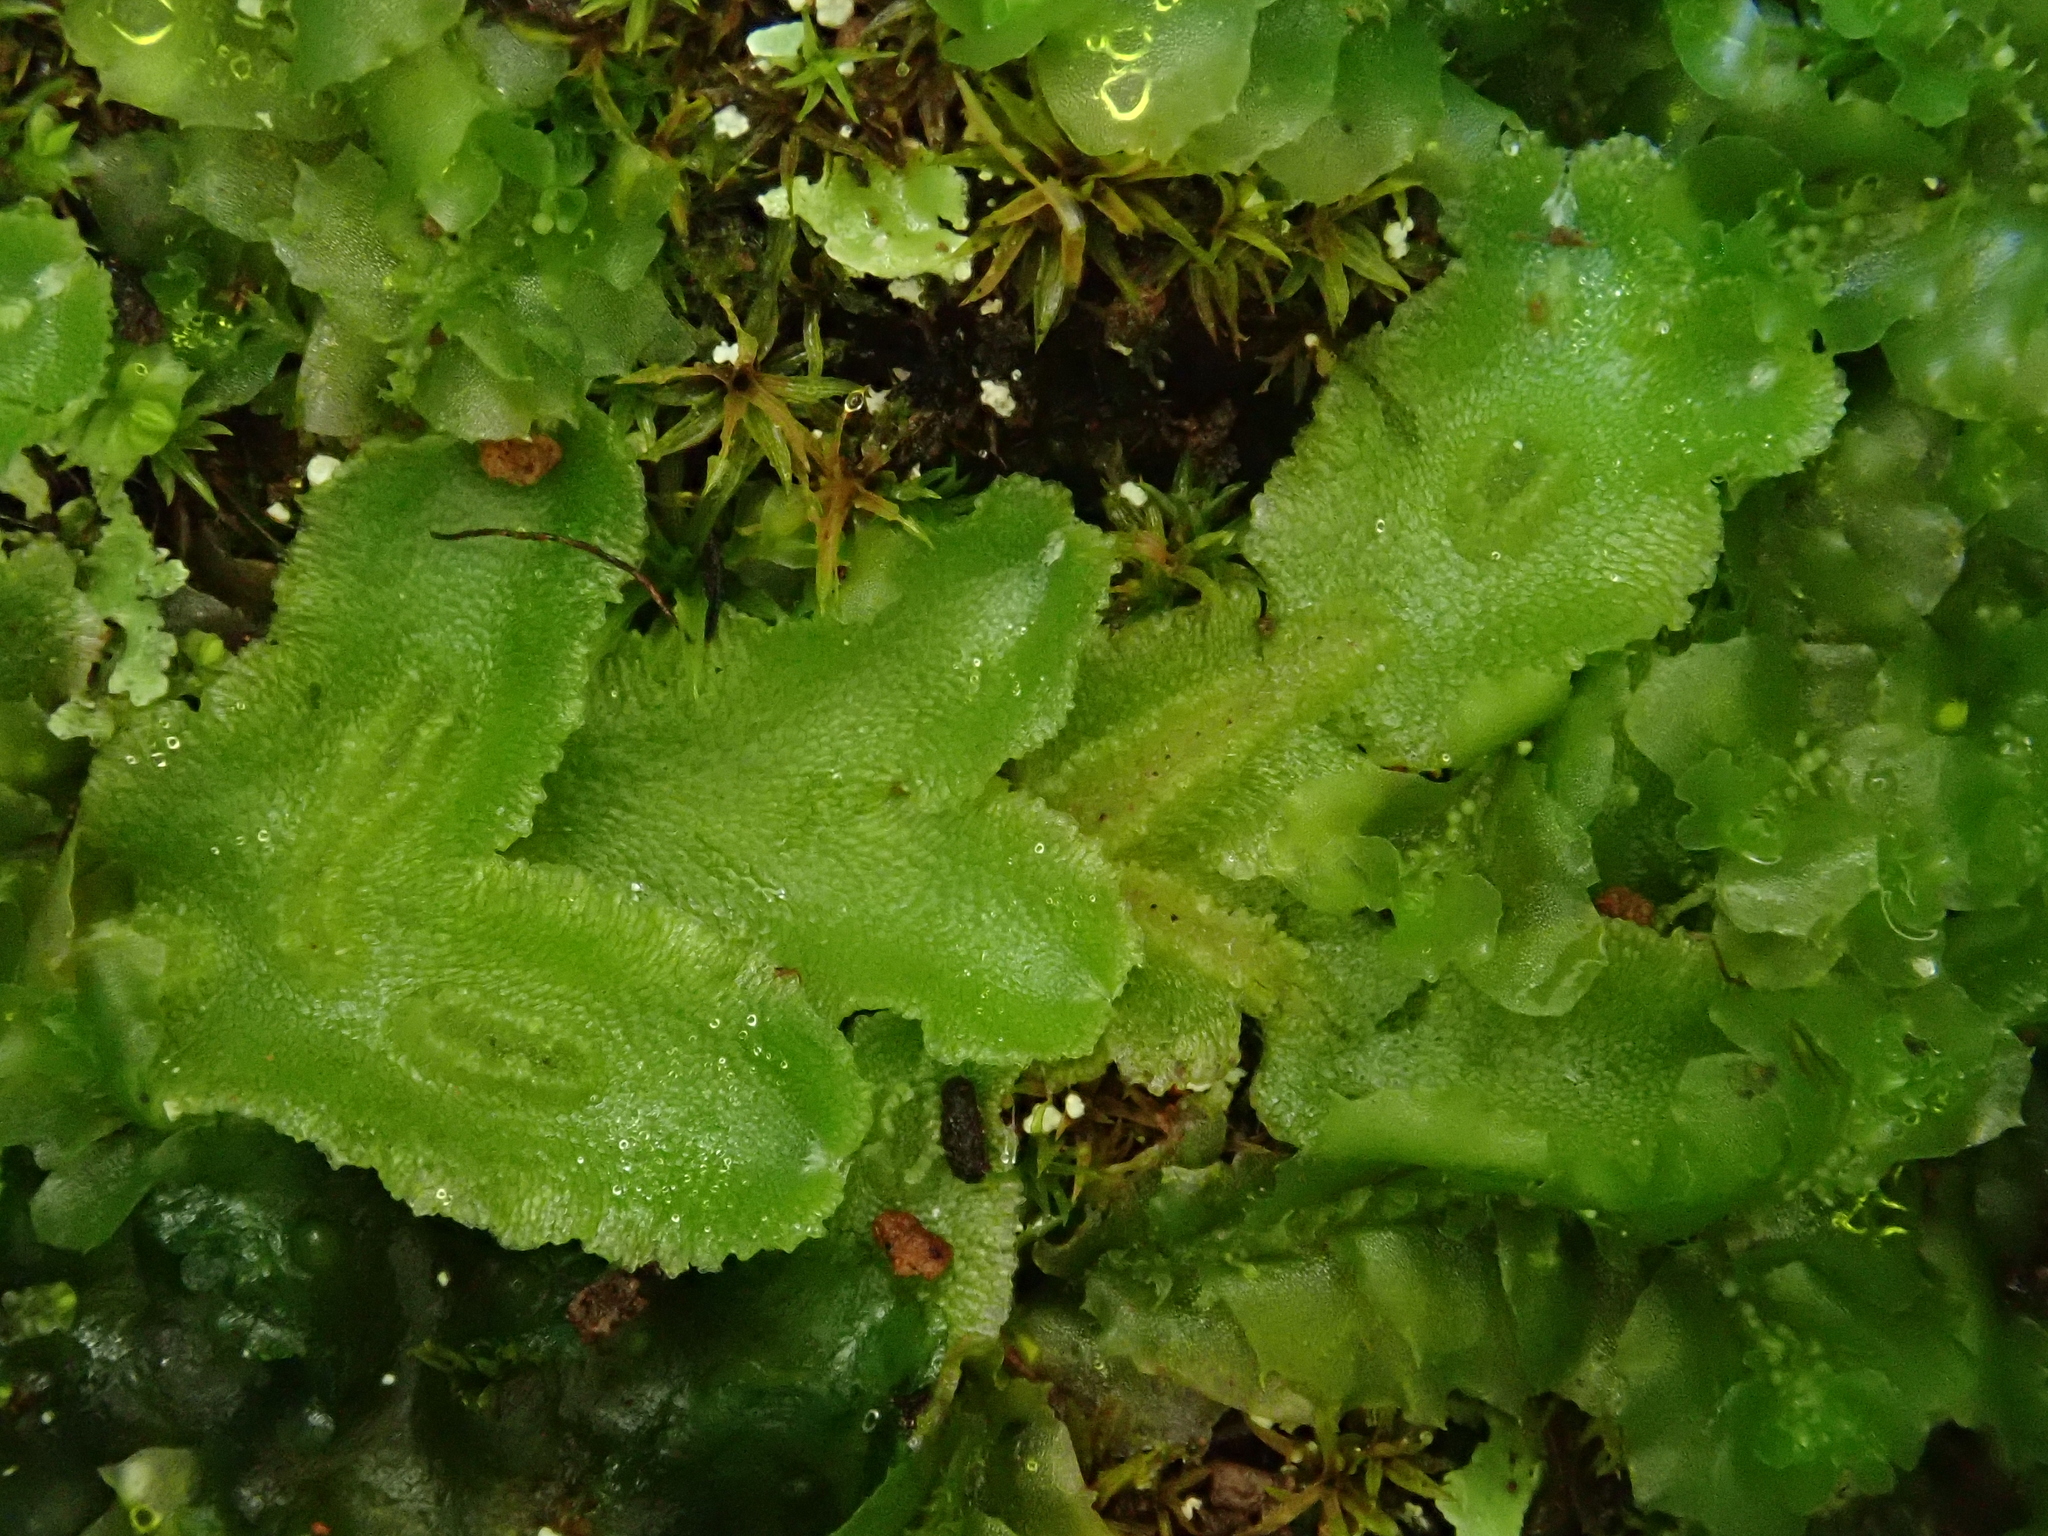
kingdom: Plantae
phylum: Marchantiophyta
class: Marchantiopsida
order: Marchantiales
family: Corsiniaceae
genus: Corsinia
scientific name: Corsinia coriandrina
